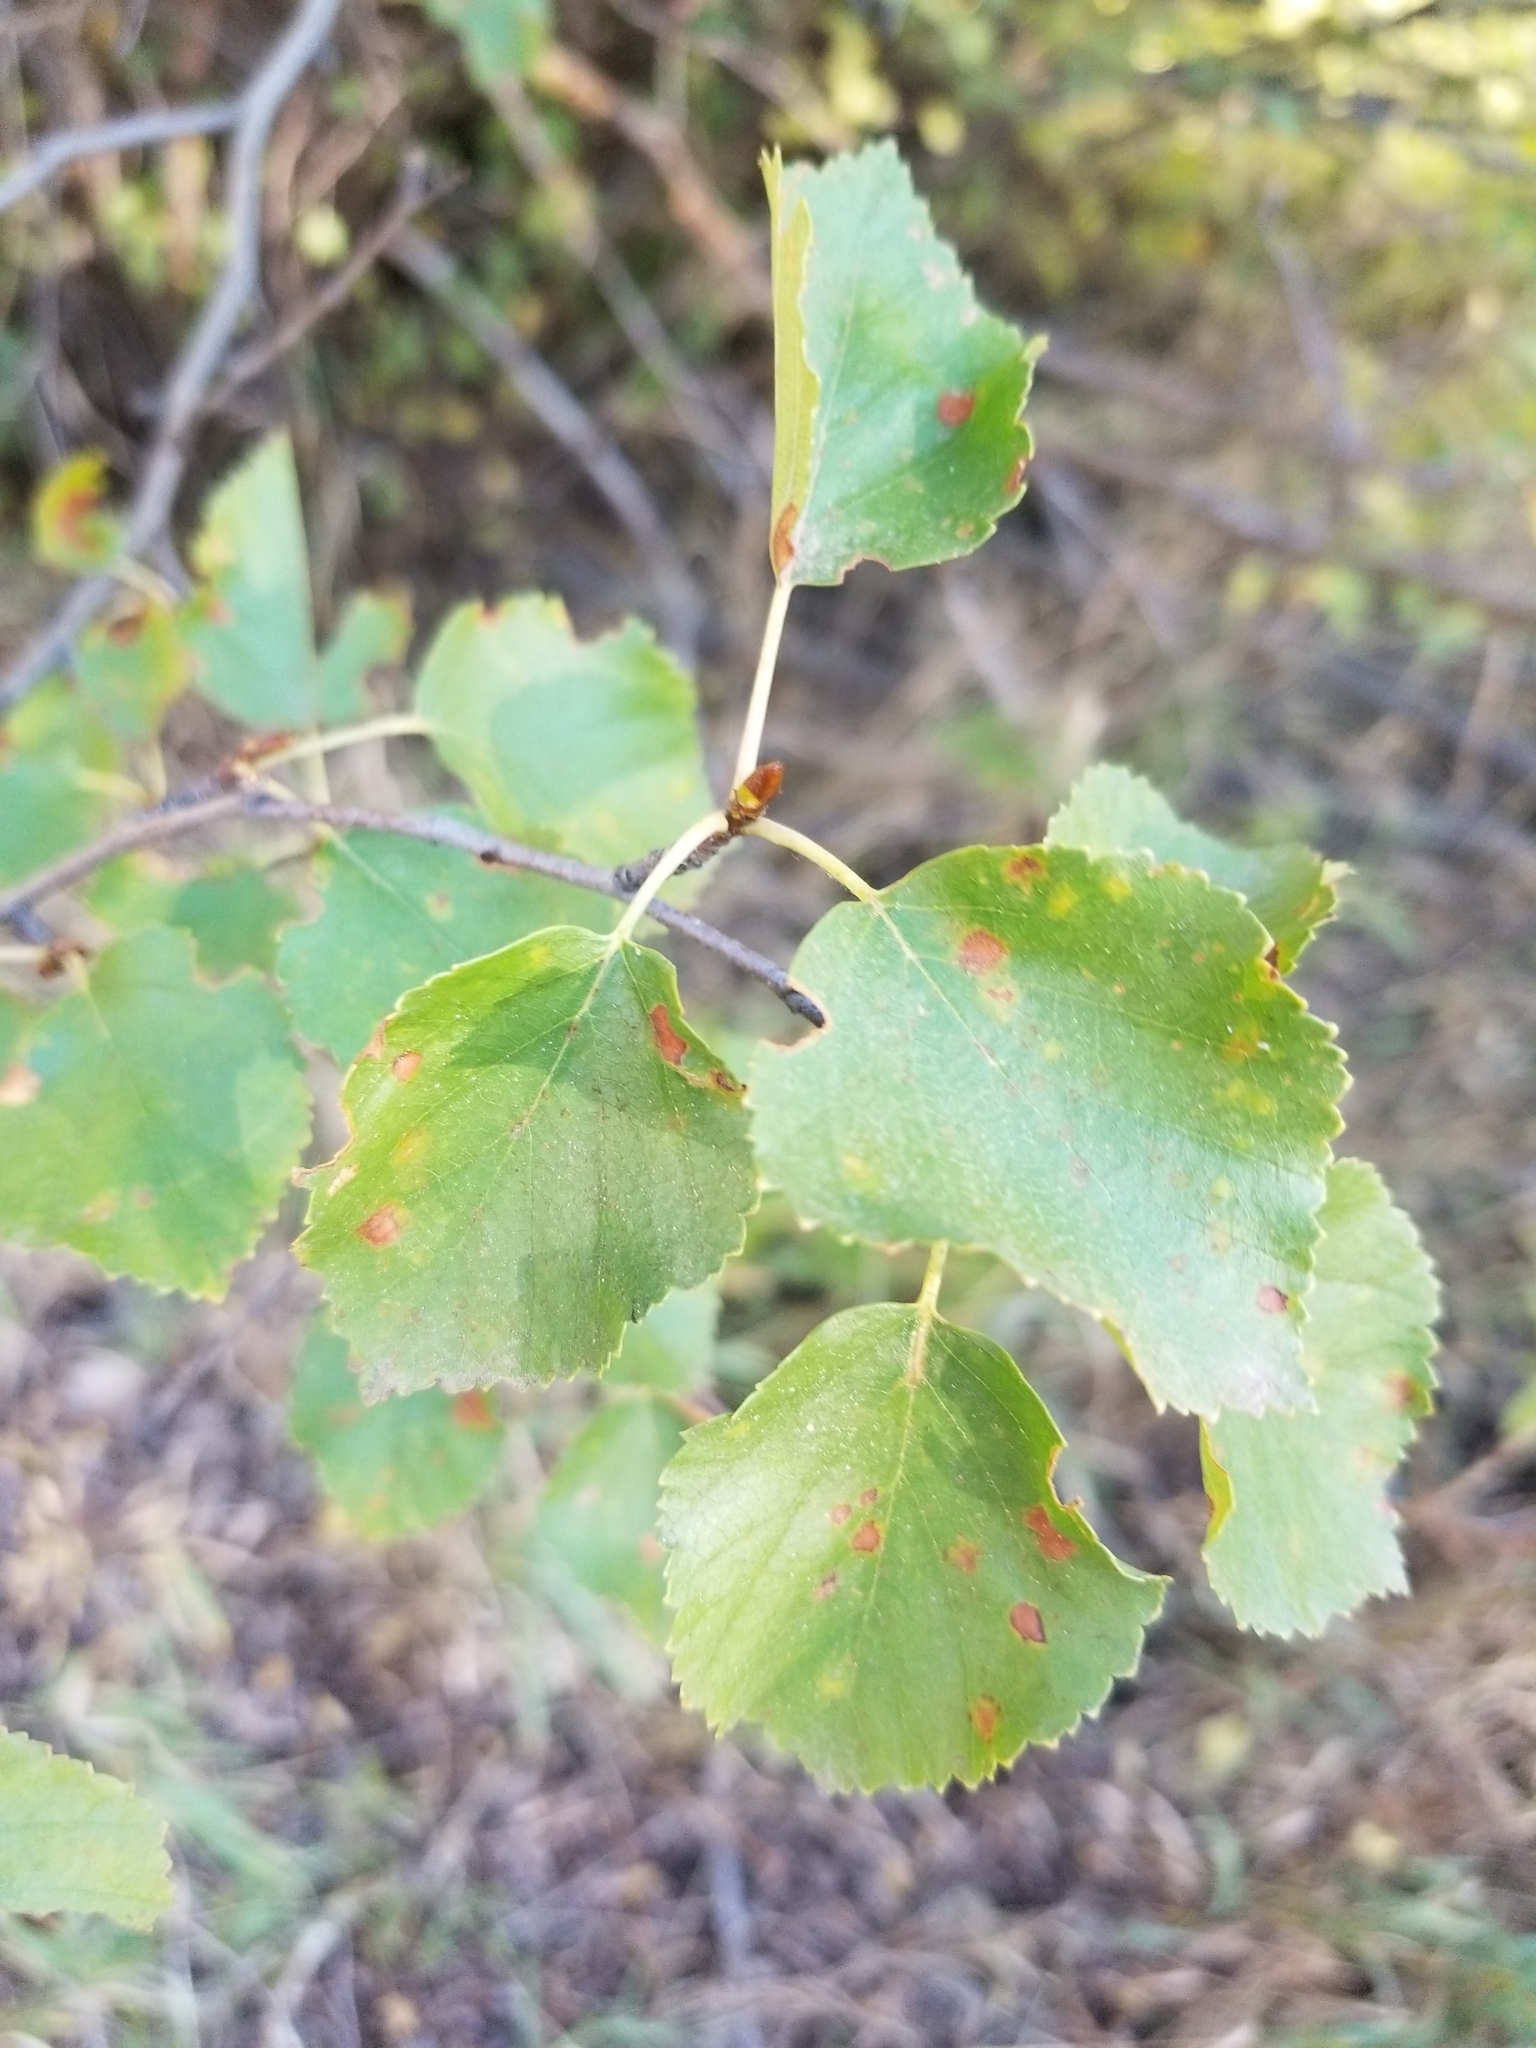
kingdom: Plantae
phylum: Tracheophyta
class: Magnoliopsida
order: Fagales
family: Betulaceae
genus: Betula
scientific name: Betula occidentalis
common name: River birch
